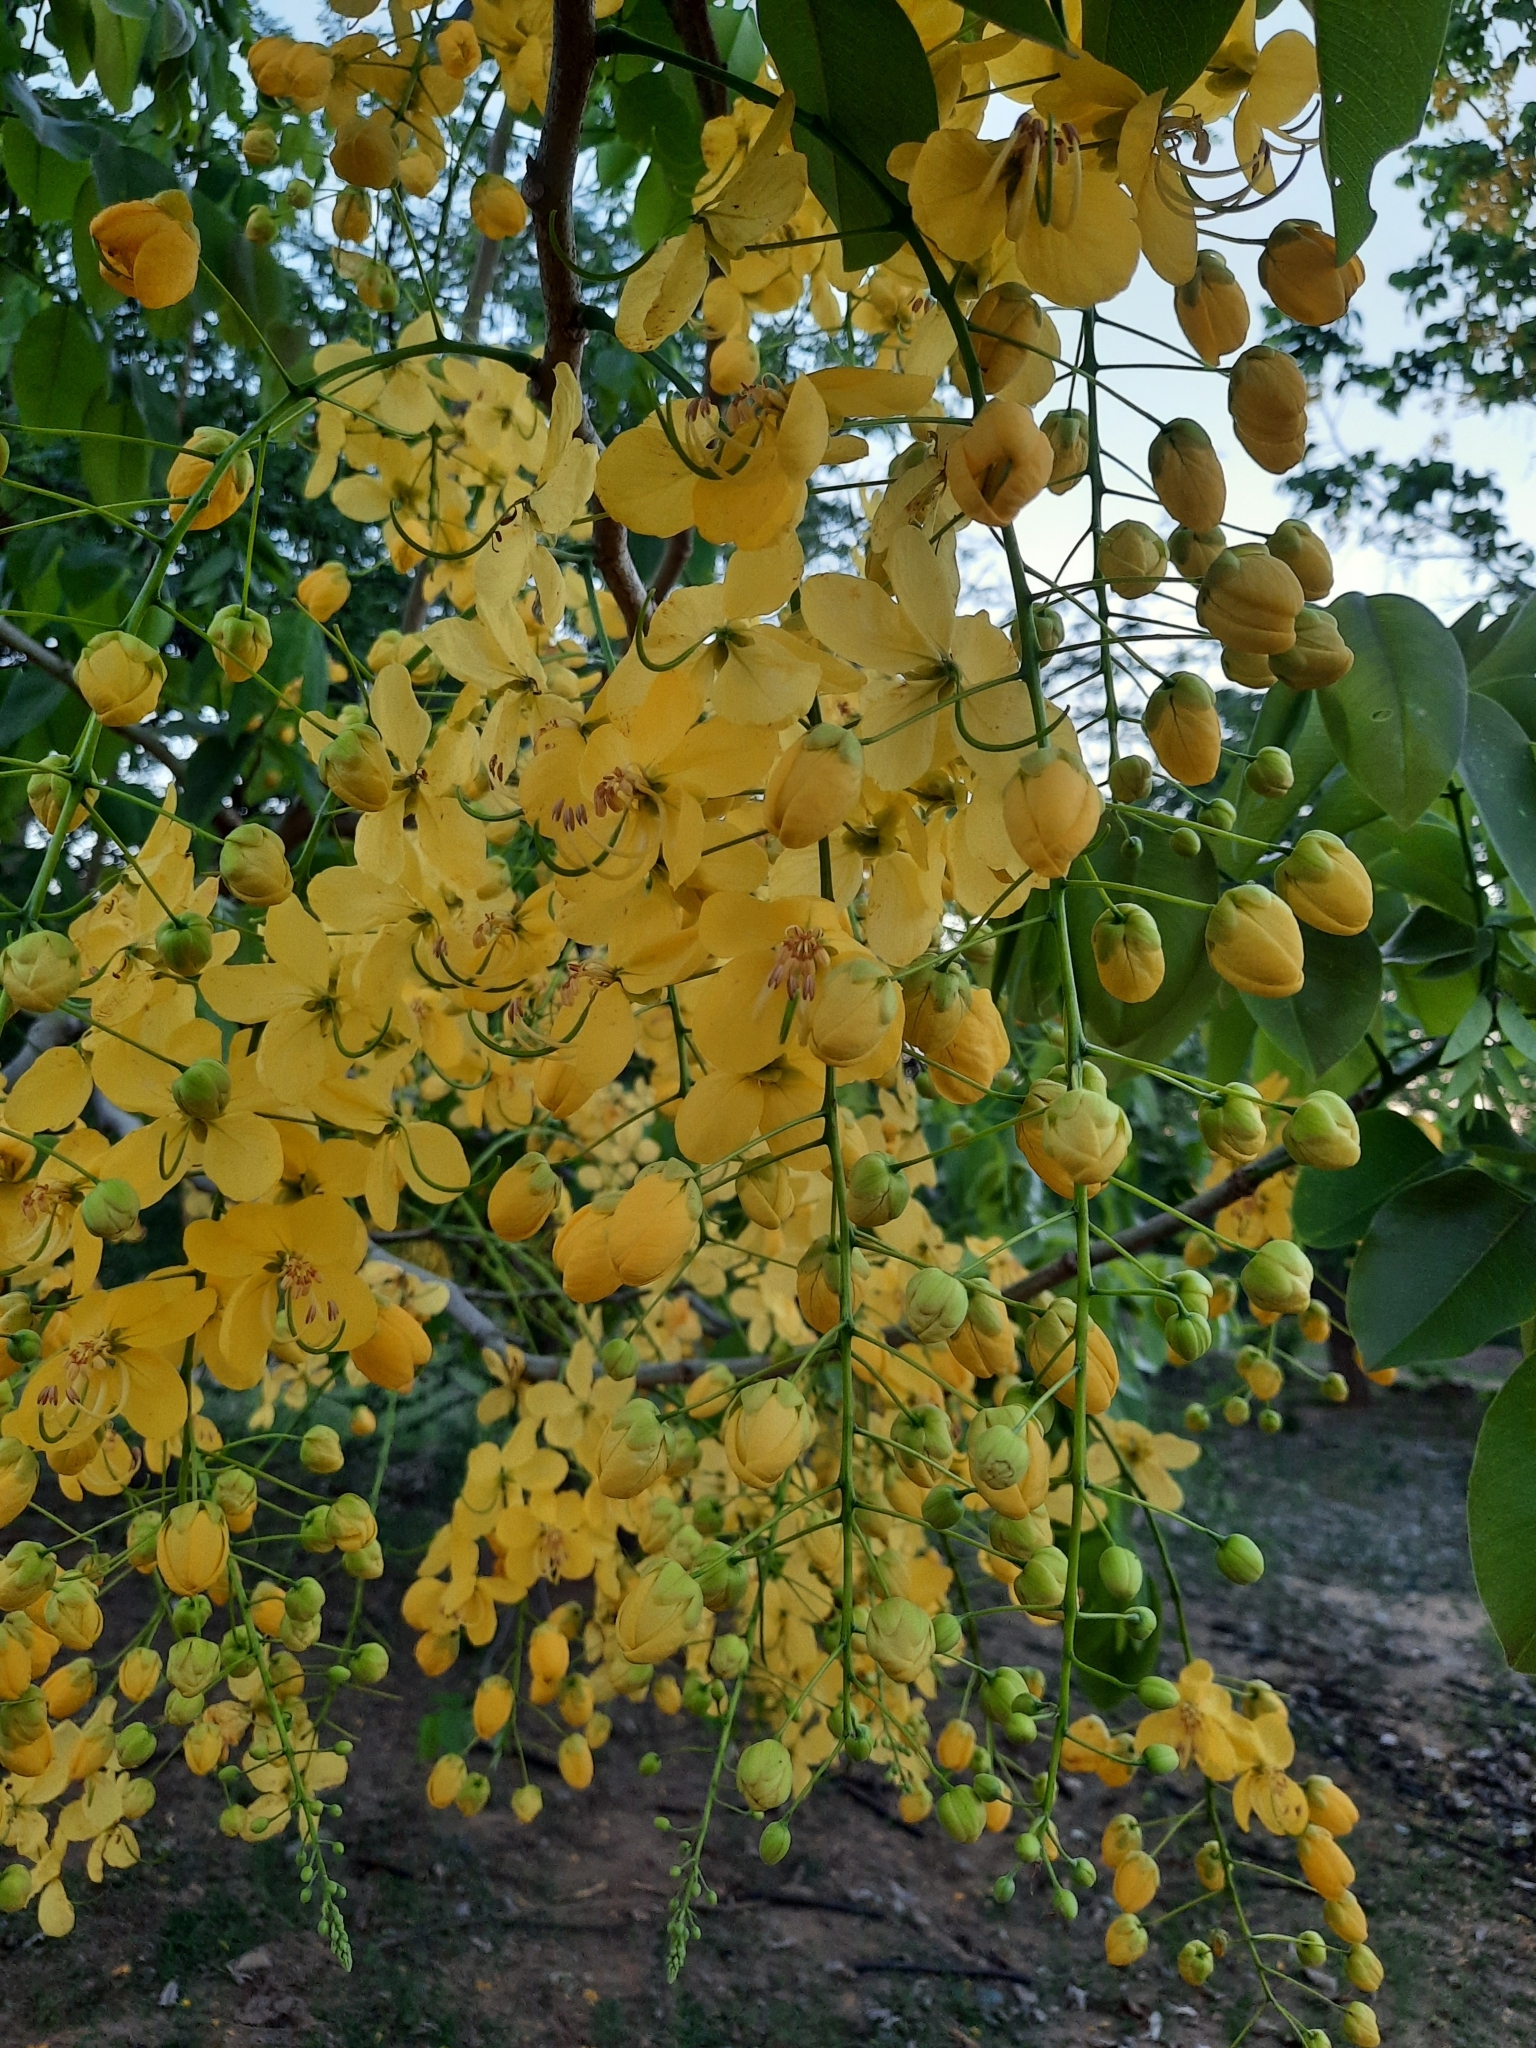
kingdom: Plantae
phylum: Tracheophyta
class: Magnoliopsida
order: Fabales
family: Fabaceae
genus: Cassia
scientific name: Cassia fistula
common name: Golden shower
